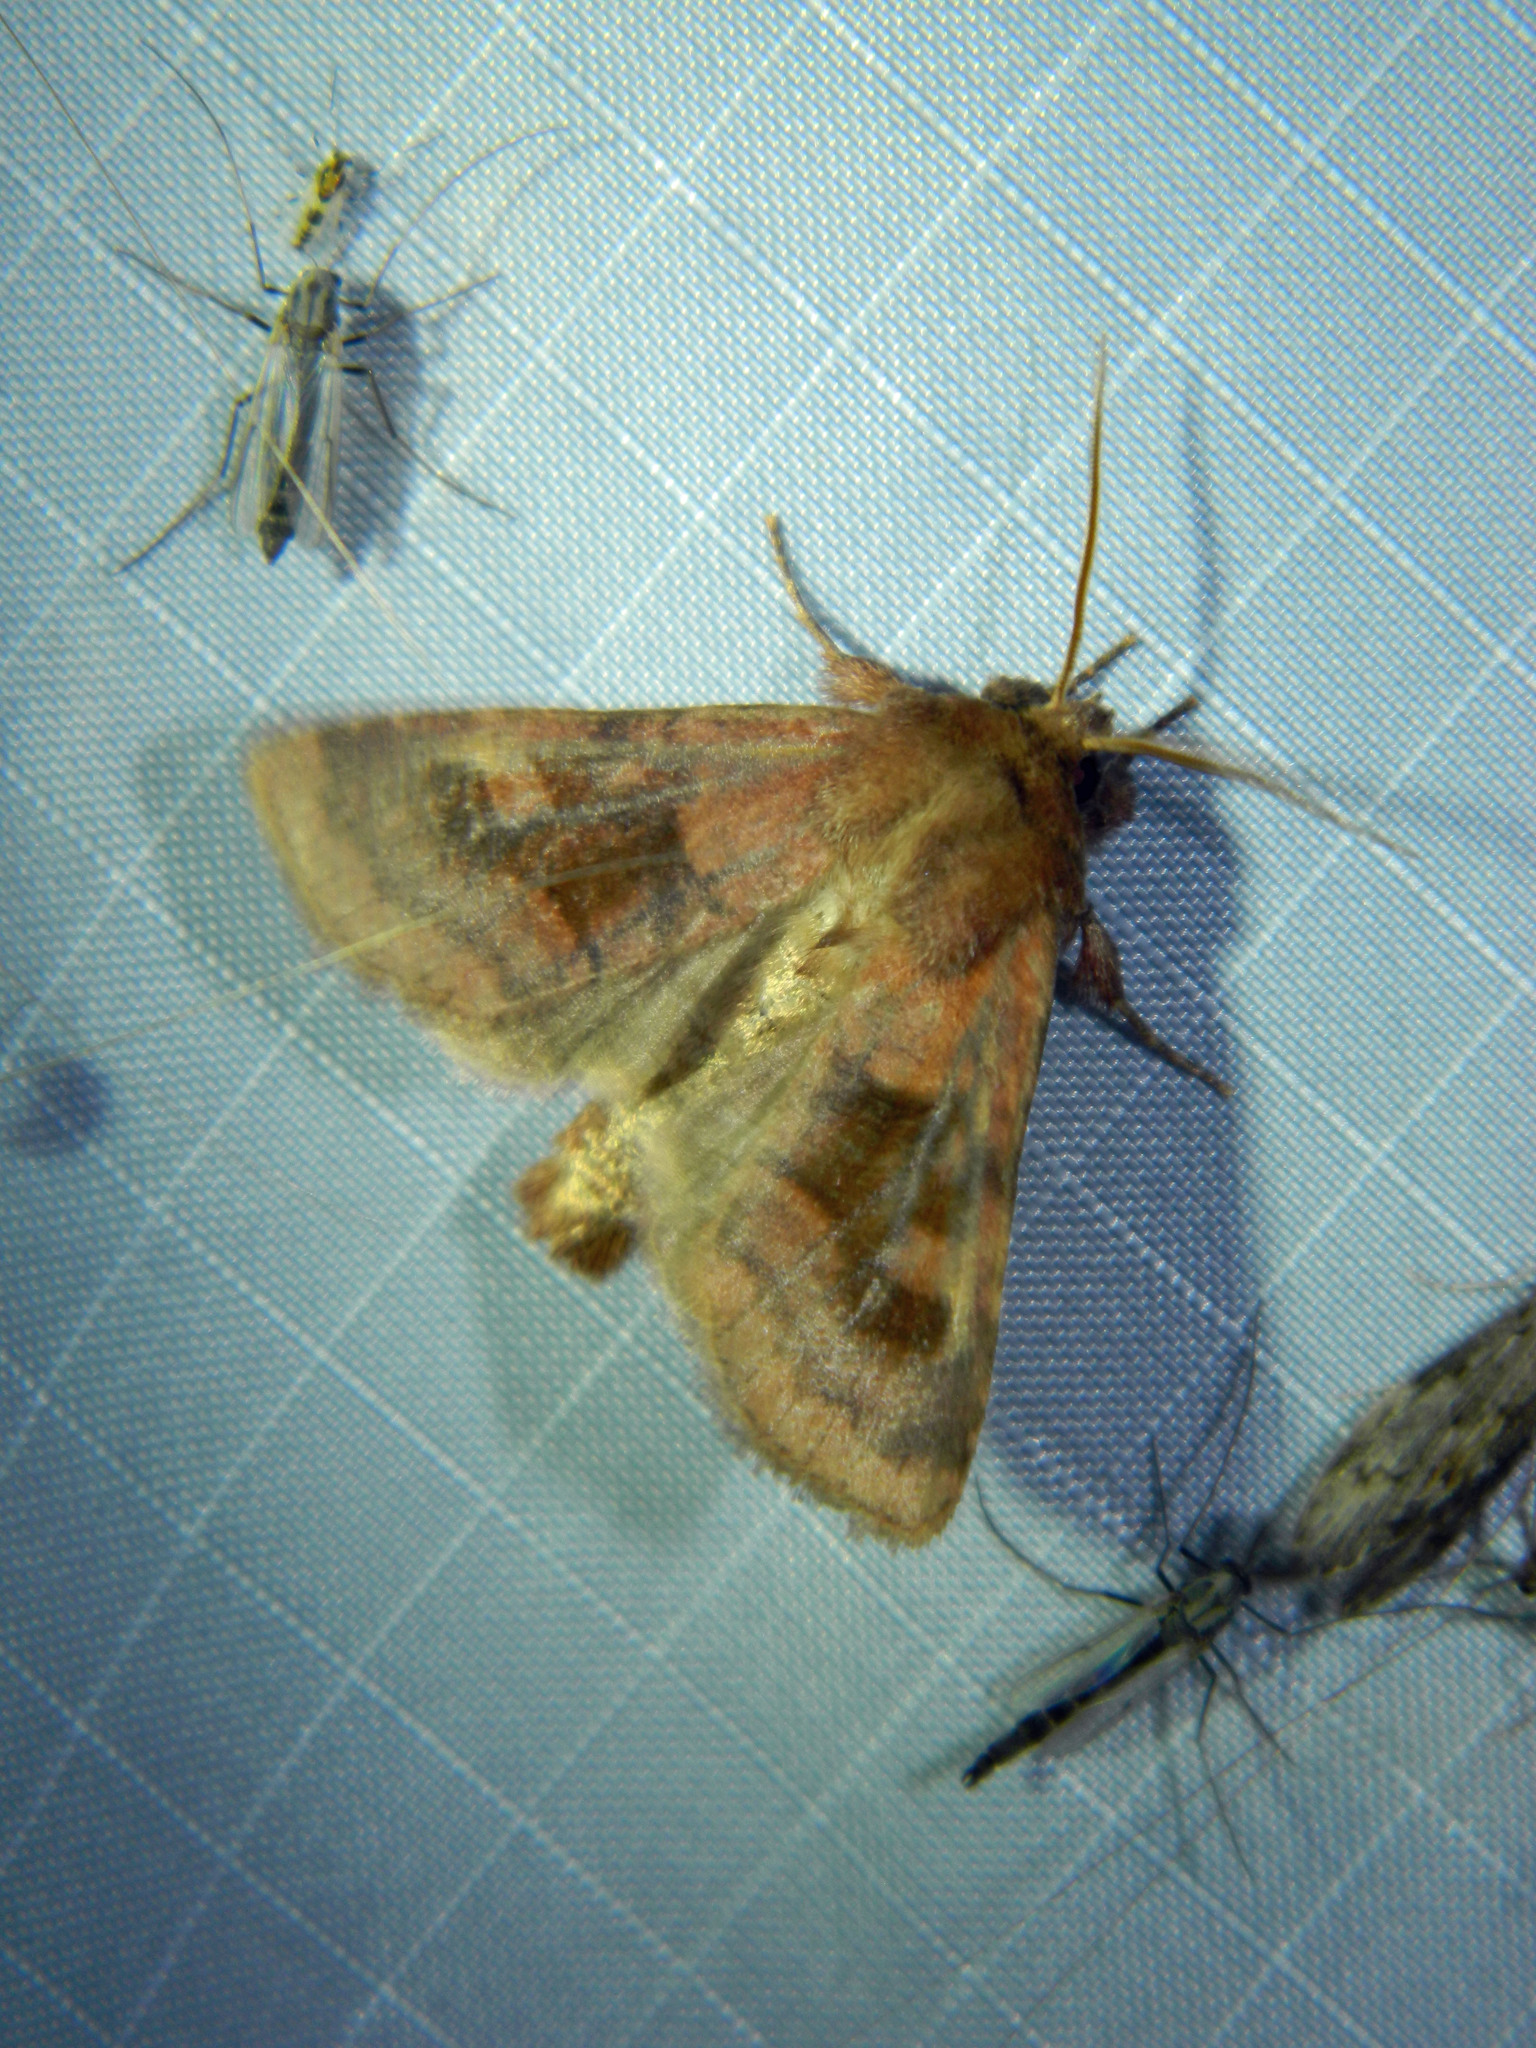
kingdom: Animalia
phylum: Arthropoda
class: Insecta
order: Lepidoptera
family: Noctuidae
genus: Nephelodes
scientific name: Nephelodes minians
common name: Bronzed cutworm
